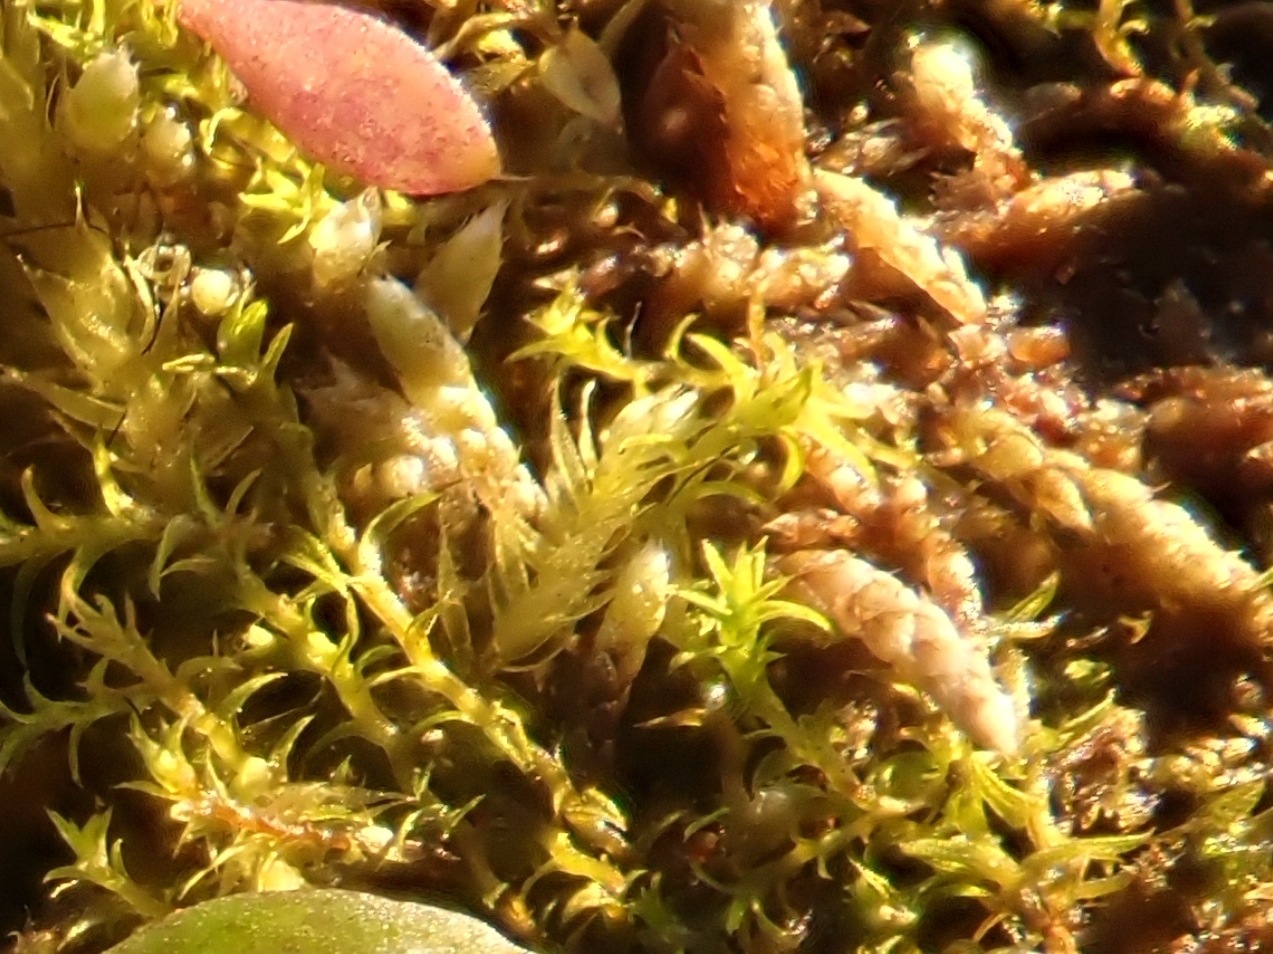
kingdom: Plantae
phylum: Bryophyta
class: Bryopsida
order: Bryales
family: Bryaceae
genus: Bryum
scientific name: Bryum argenteum
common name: Silver-moss
